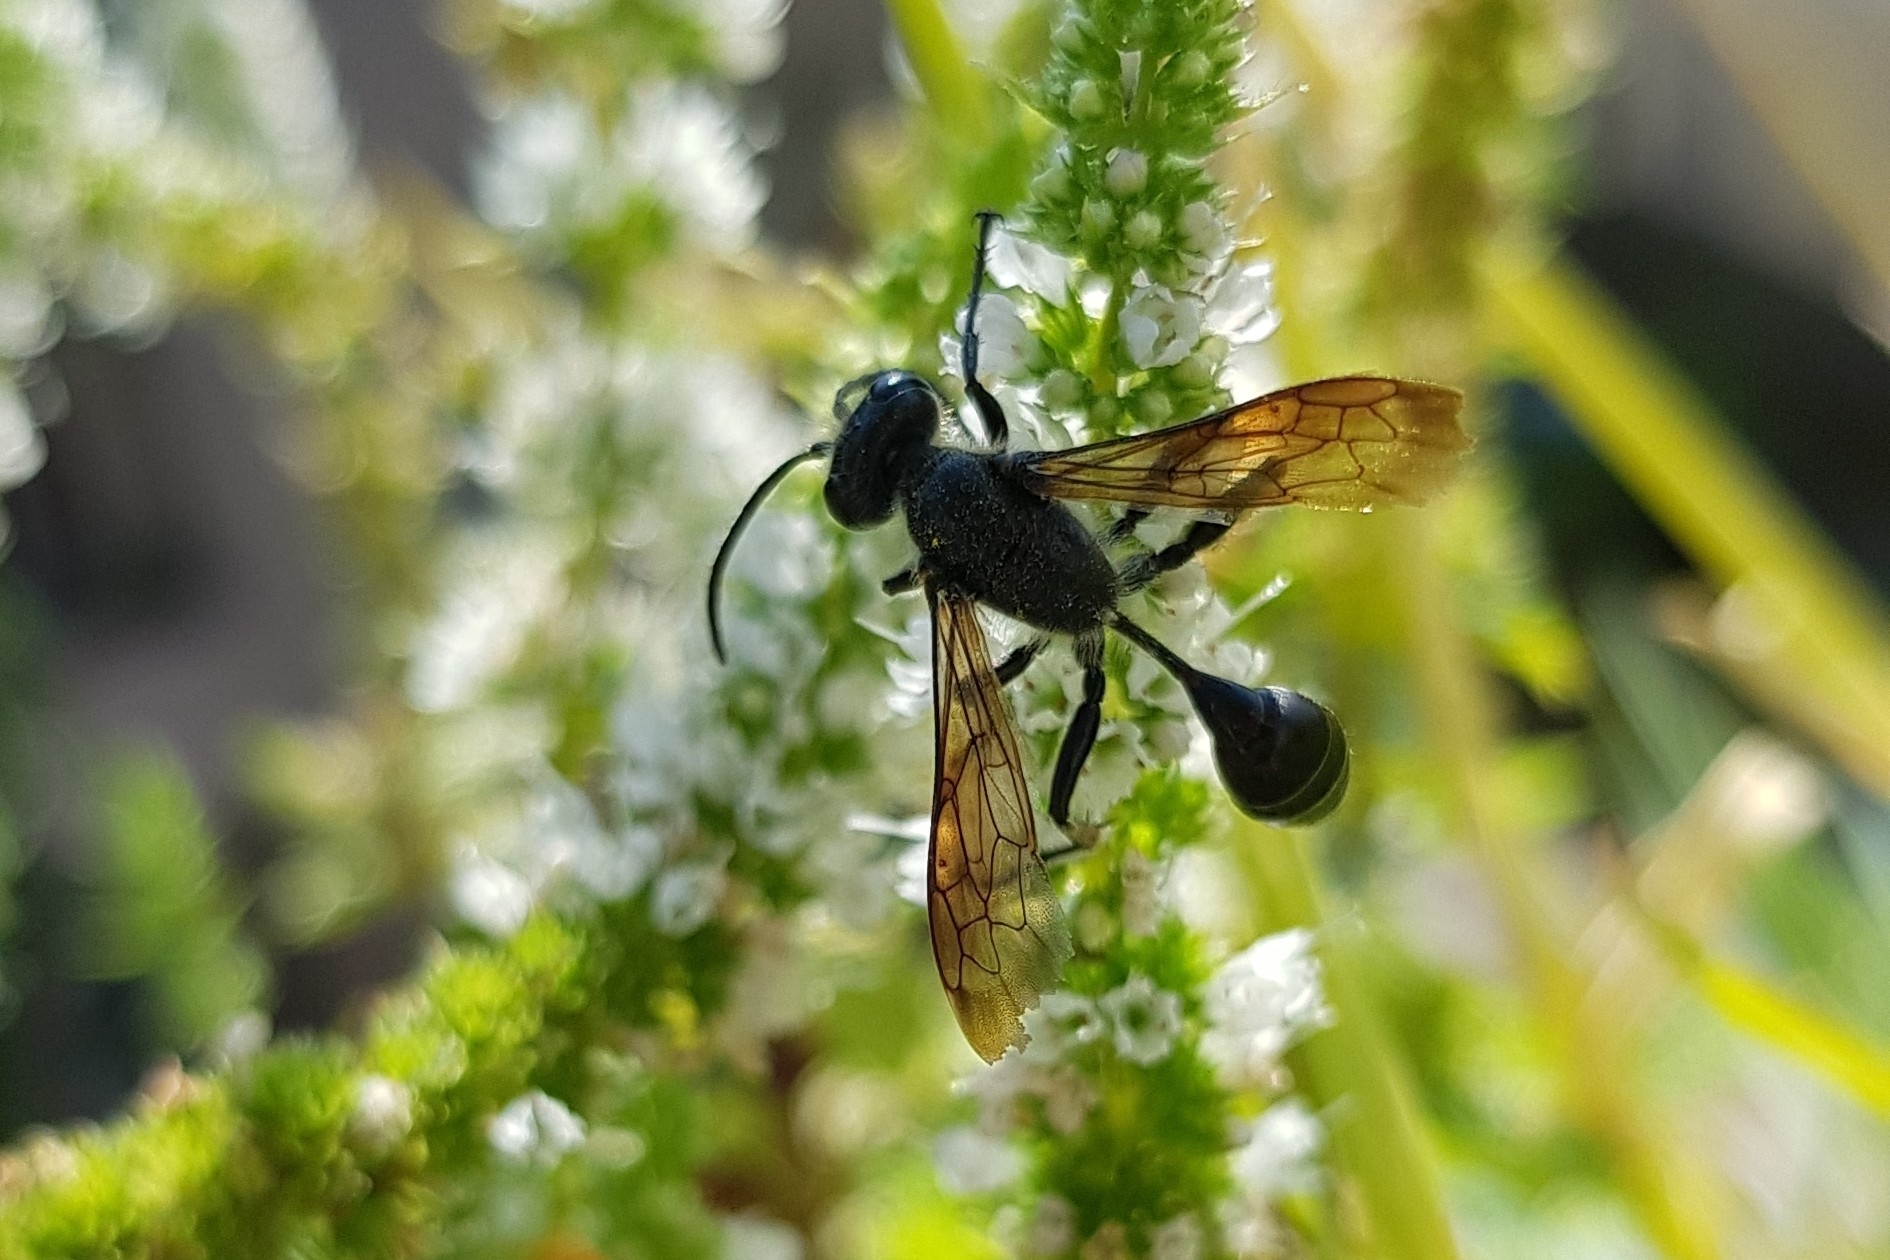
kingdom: Animalia
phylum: Arthropoda
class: Insecta
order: Hymenoptera
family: Sphecidae
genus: Isodontia
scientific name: Isodontia mexicana
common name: Mud dauber
